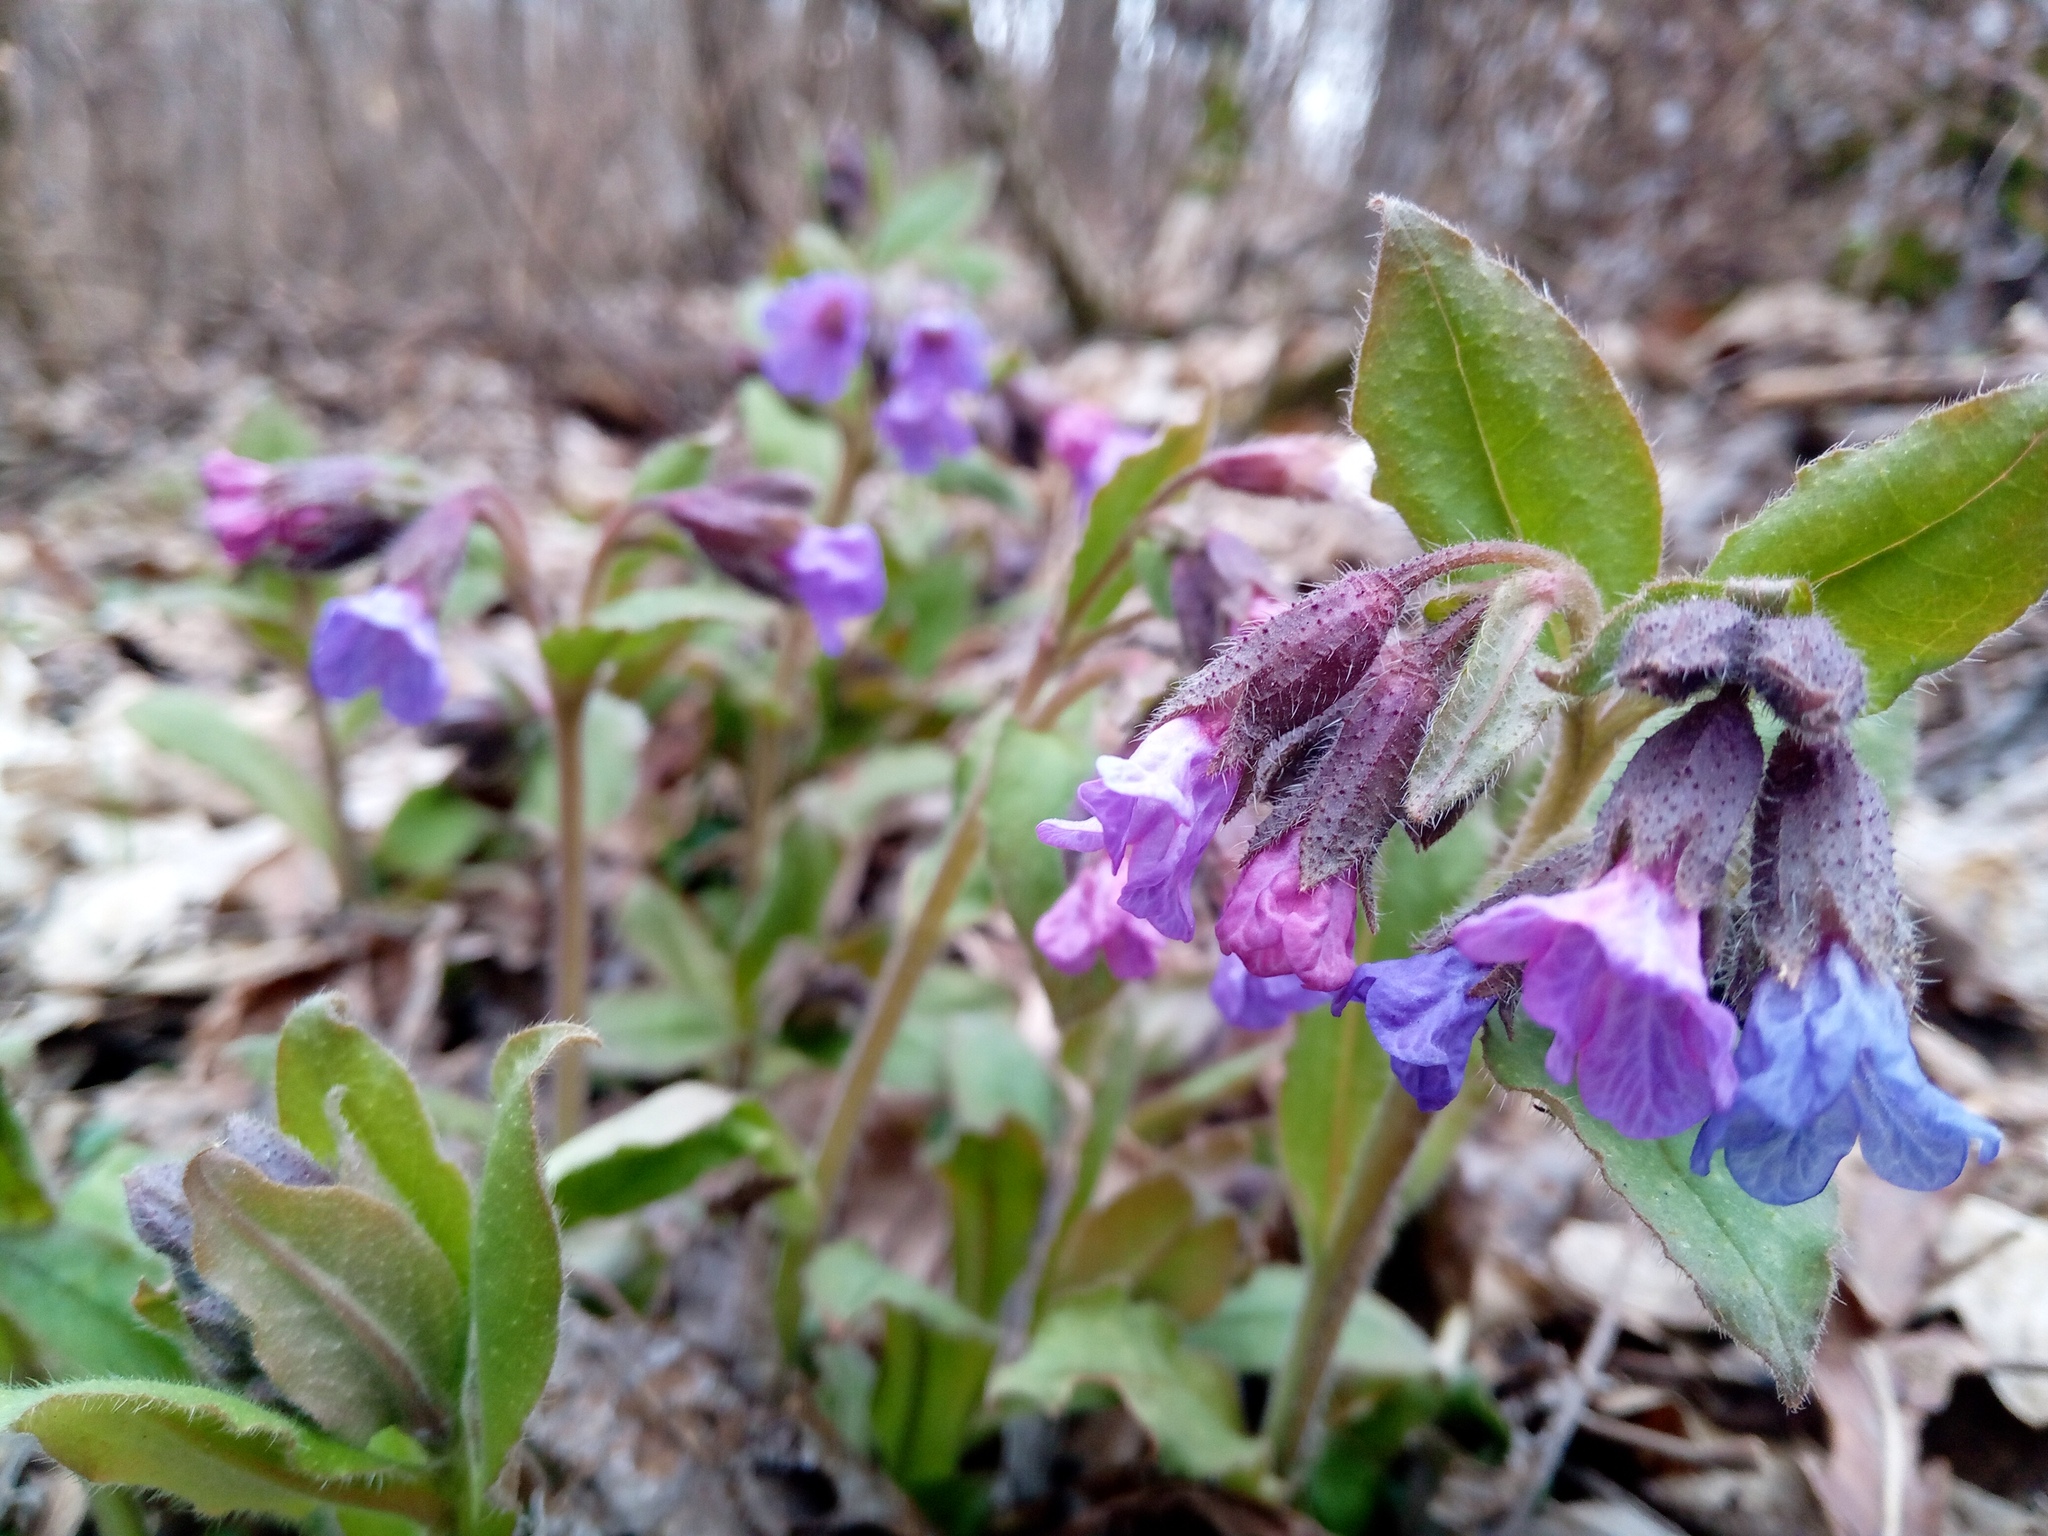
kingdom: Plantae
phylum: Tracheophyta
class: Magnoliopsida
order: Boraginales
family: Boraginaceae
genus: Pulmonaria
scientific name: Pulmonaria obscura
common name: Suffolk lungwort
